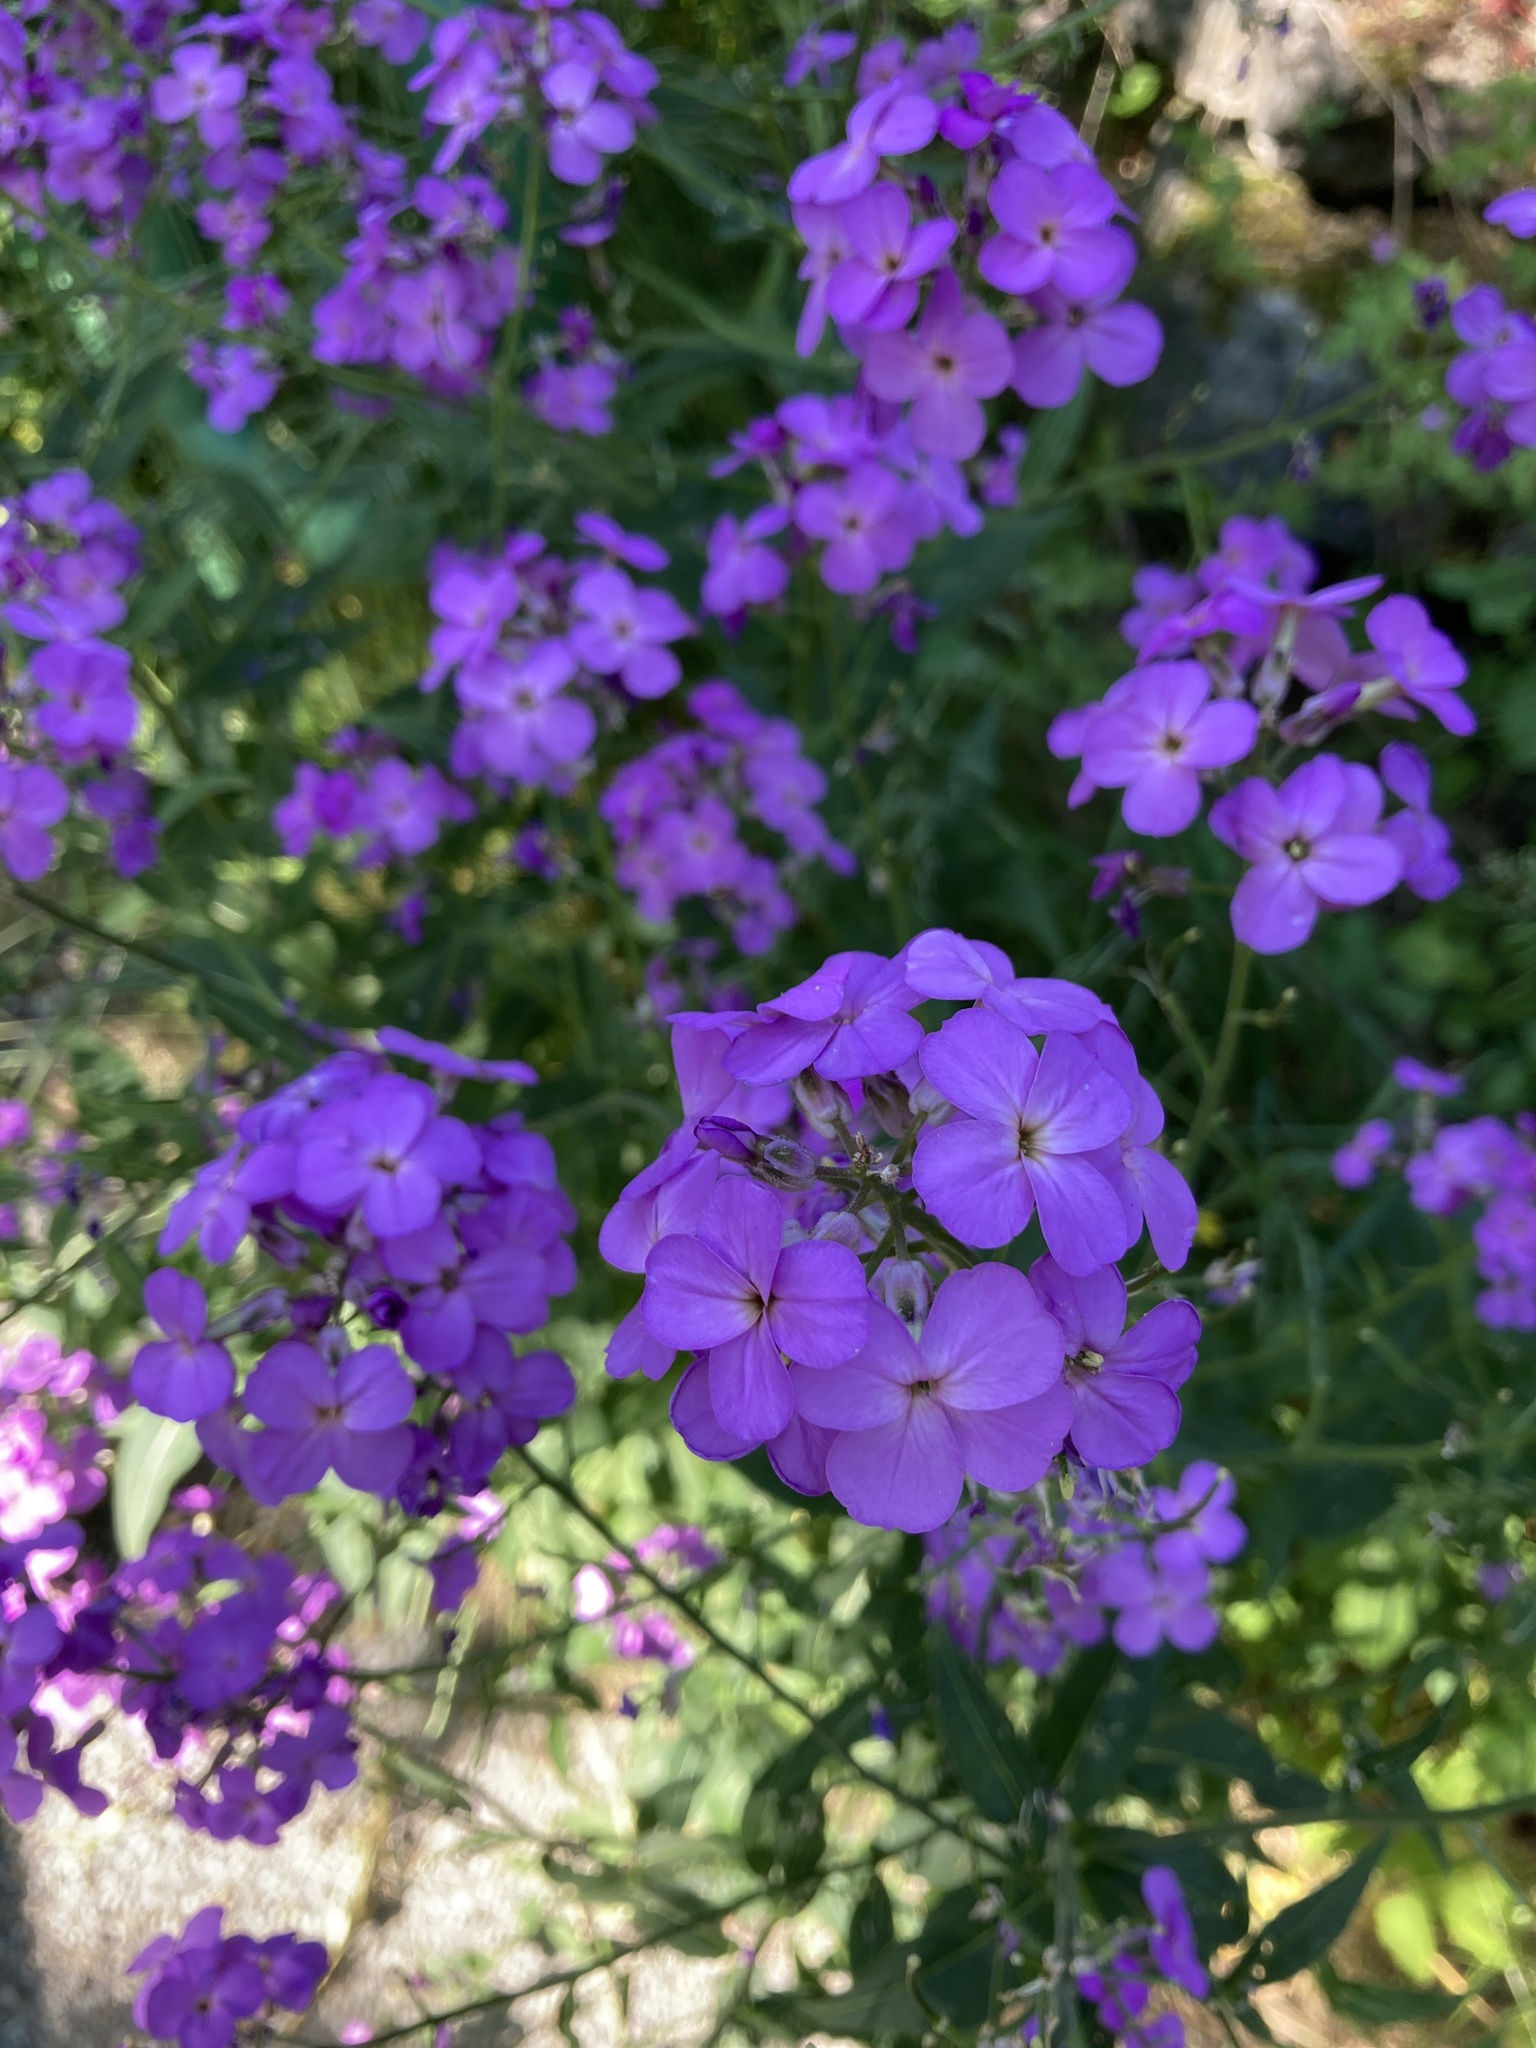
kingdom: Plantae
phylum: Tracheophyta
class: Magnoliopsida
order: Brassicales
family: Brassicaceae
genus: Hesperis
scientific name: Hesperis matronalis
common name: Dame's-violet
